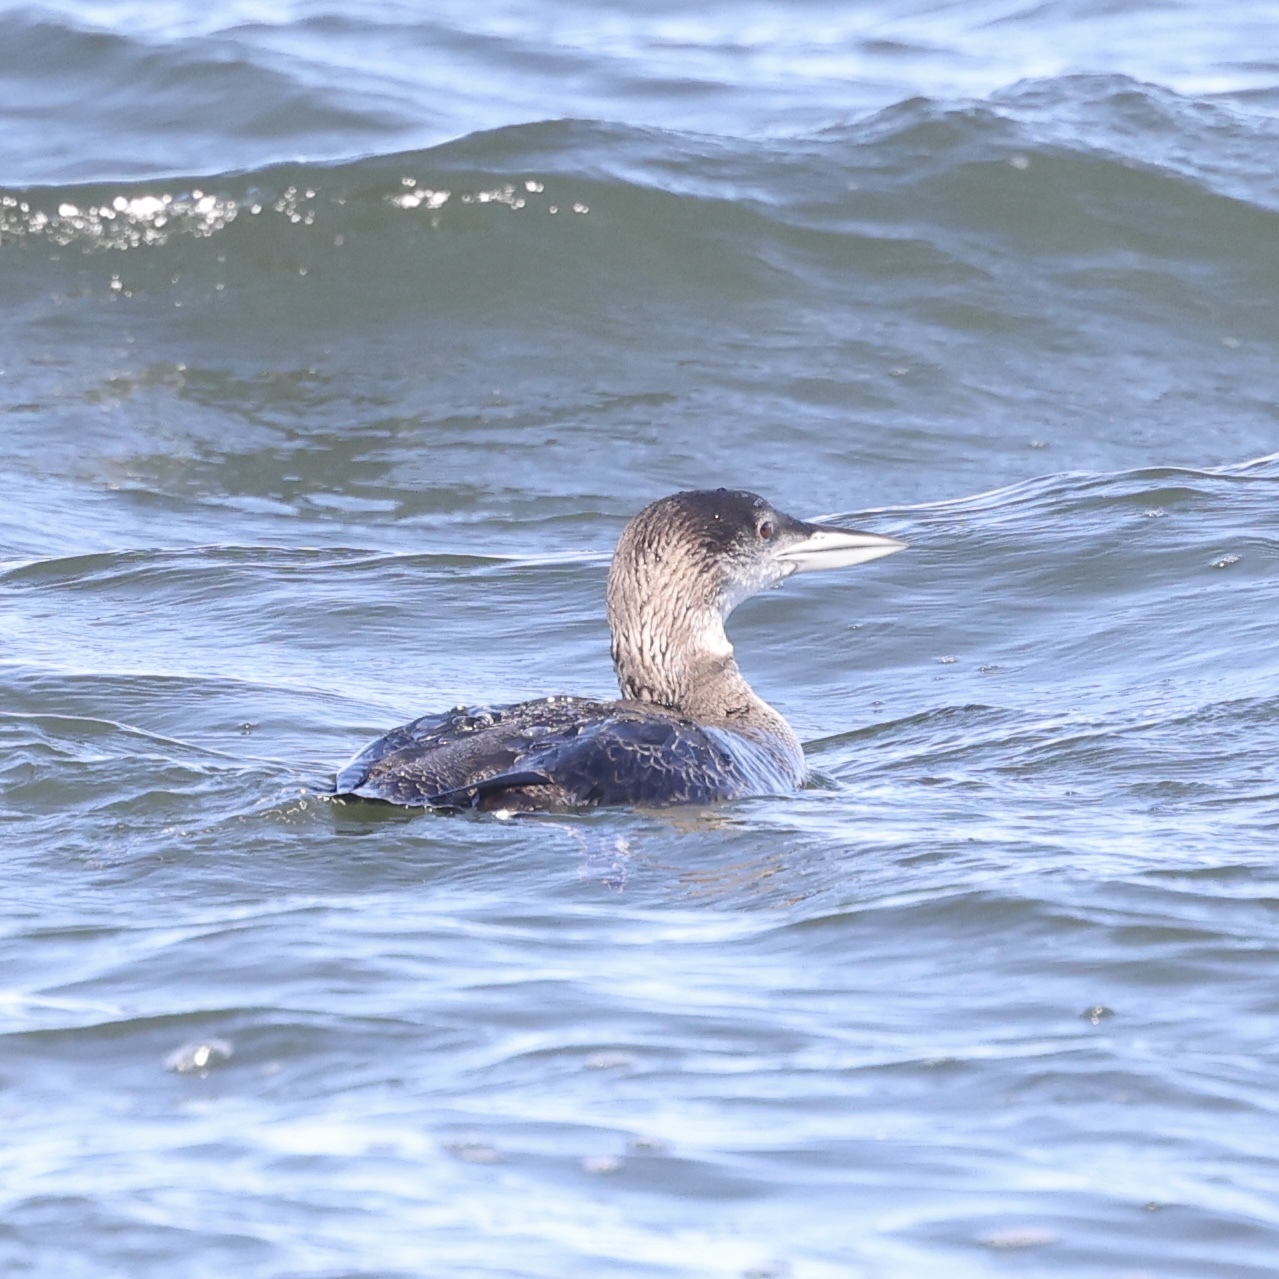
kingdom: Animalia
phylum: Chordata
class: Aves
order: Gaviiformes
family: Gaviidae
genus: Gavia
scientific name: Gavia immer
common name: Common loon
